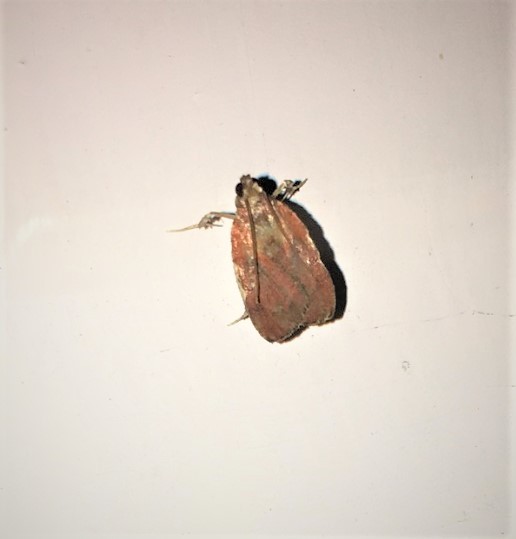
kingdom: Animalia
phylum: Arthropoda
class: Insecta
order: Lepidoptera
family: Pyralidae
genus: Galasa
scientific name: Galasa nigrinodis
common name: Boxwood leaftier moth
